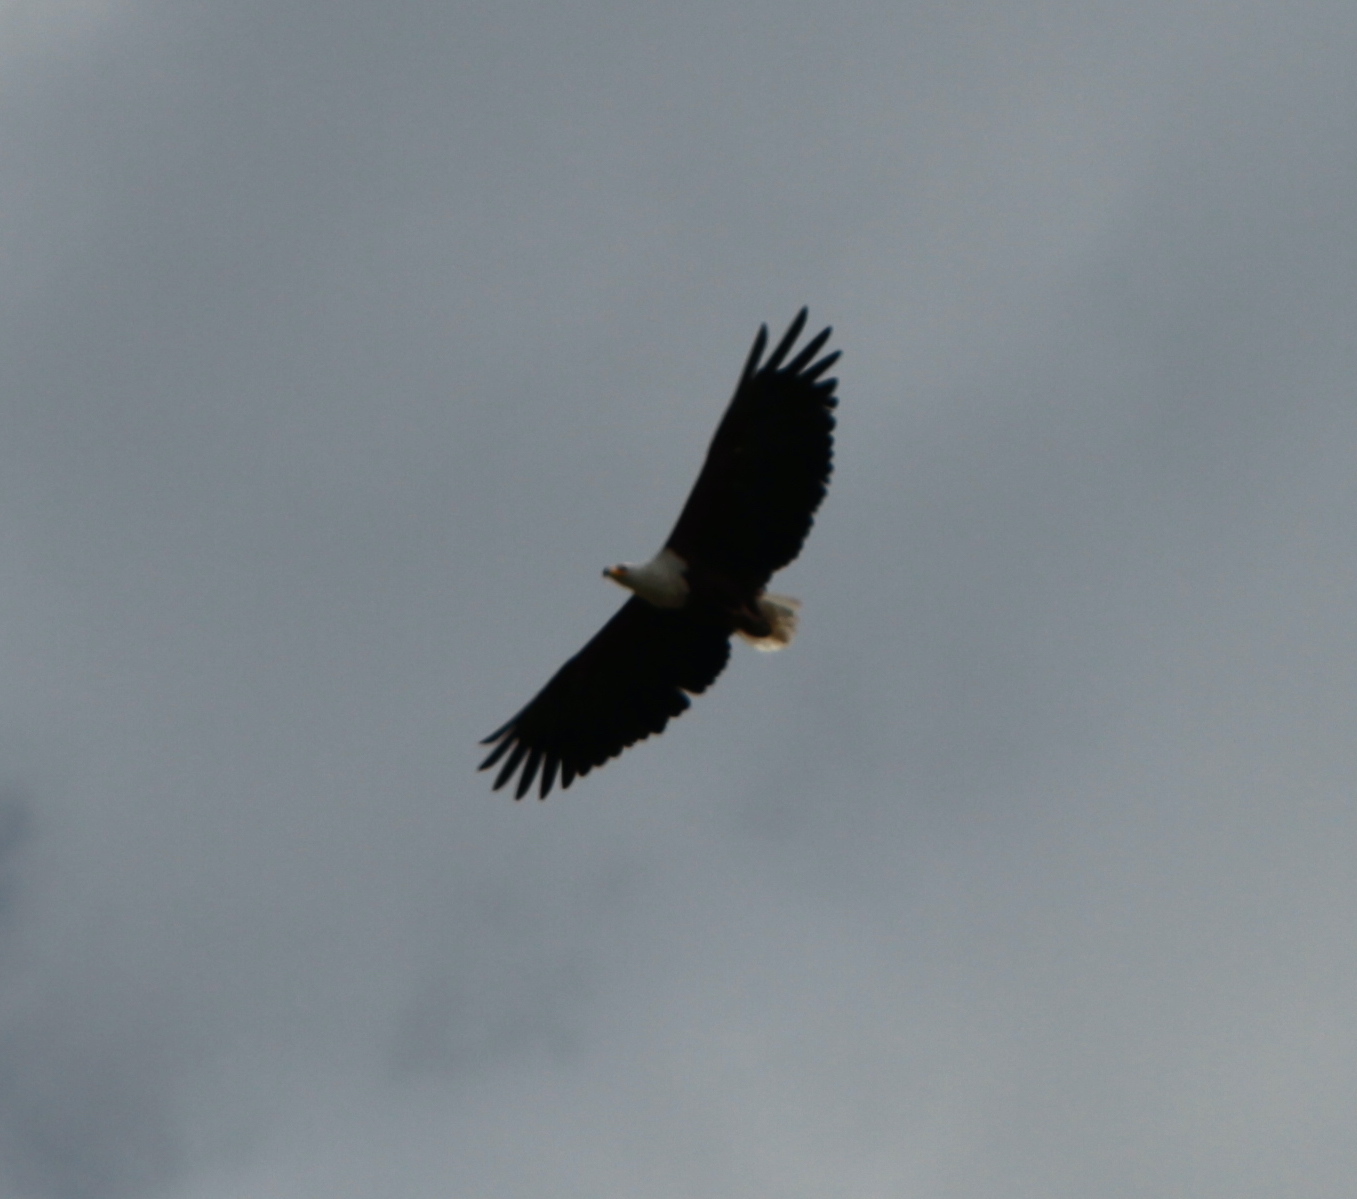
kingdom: Animalia
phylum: Chordata
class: Aves
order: Accipitriformes
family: Accipitridae
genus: Haliaeetus
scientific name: Haliaeetus vocifer
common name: African fish eagle
